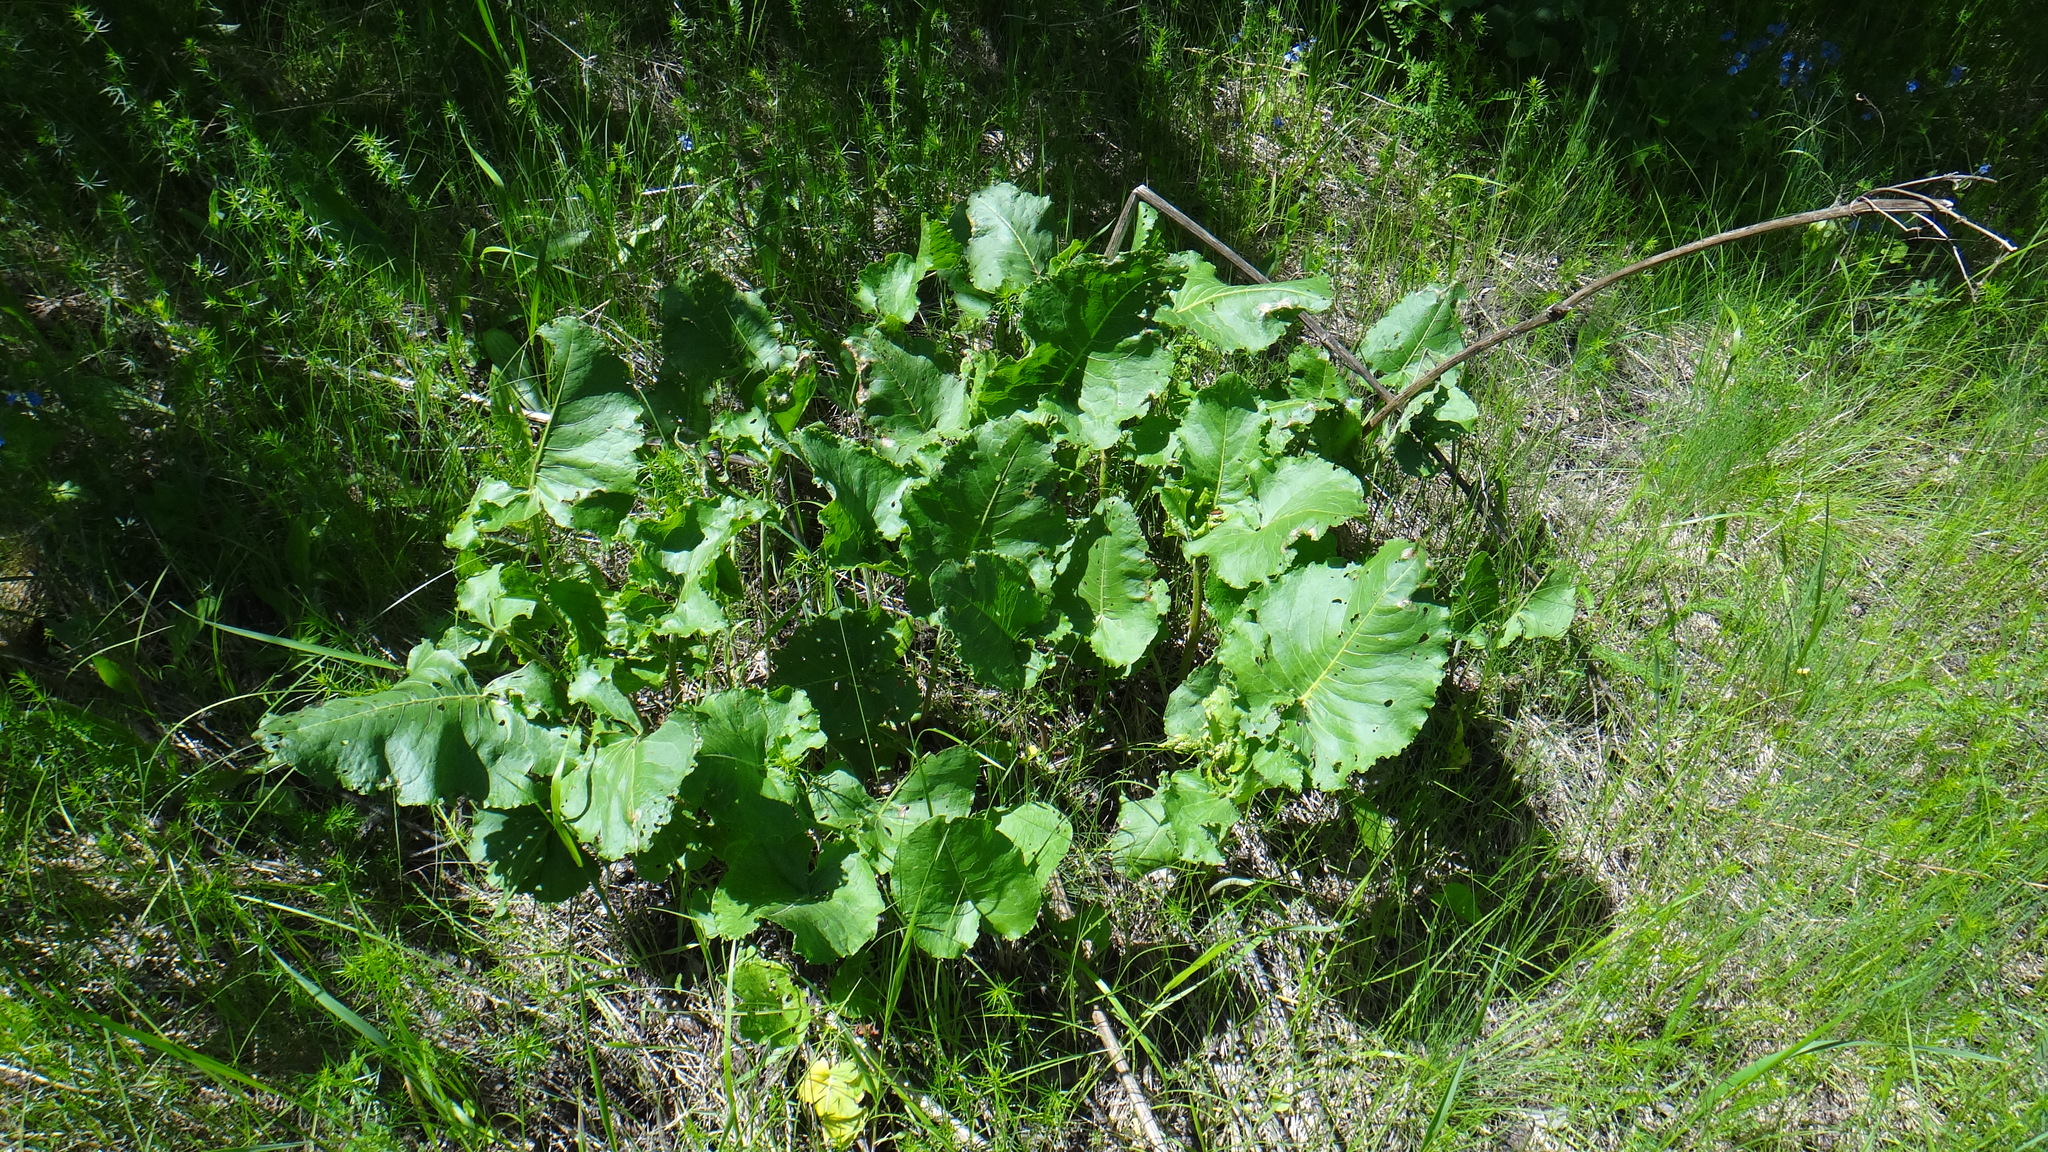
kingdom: Plantae
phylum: Tracheophyta
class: Magnoliopsida
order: Caryophyllales
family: Polygonaceae
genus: Rumex
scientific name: Rumex confertus
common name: Russian dock
